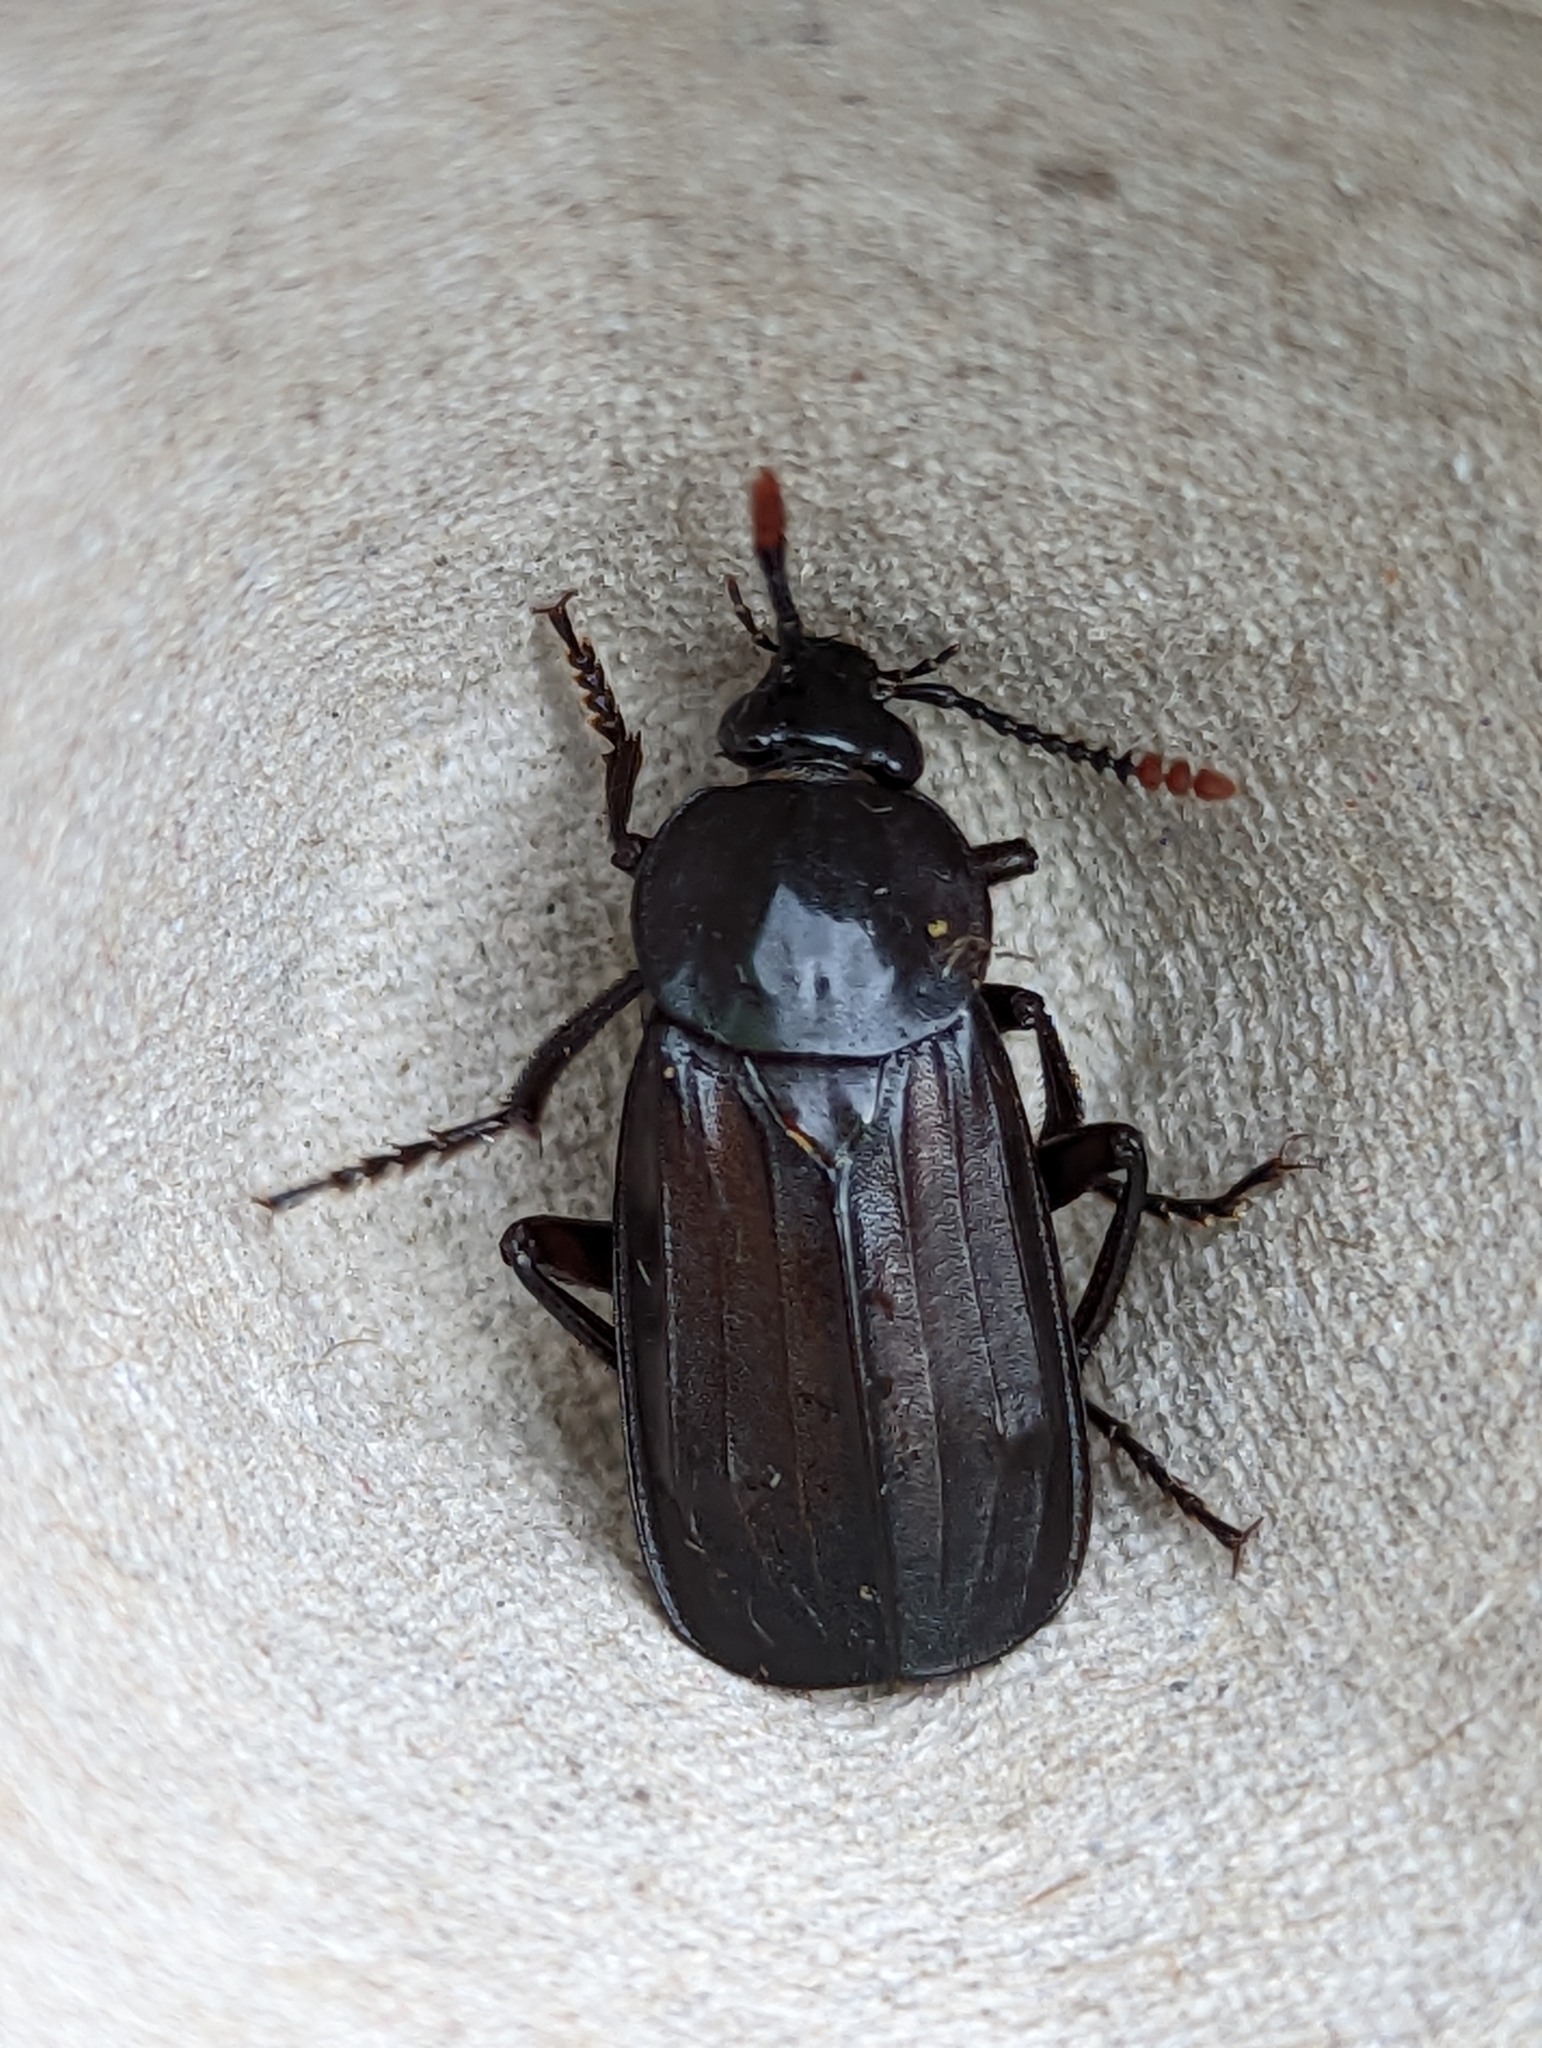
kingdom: Animalia
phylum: Arthropoda
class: Insecta
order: Coleoptera
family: Staphylinidae
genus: Necrodes
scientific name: Necrodes littoralis
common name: Shore sexton beetle
